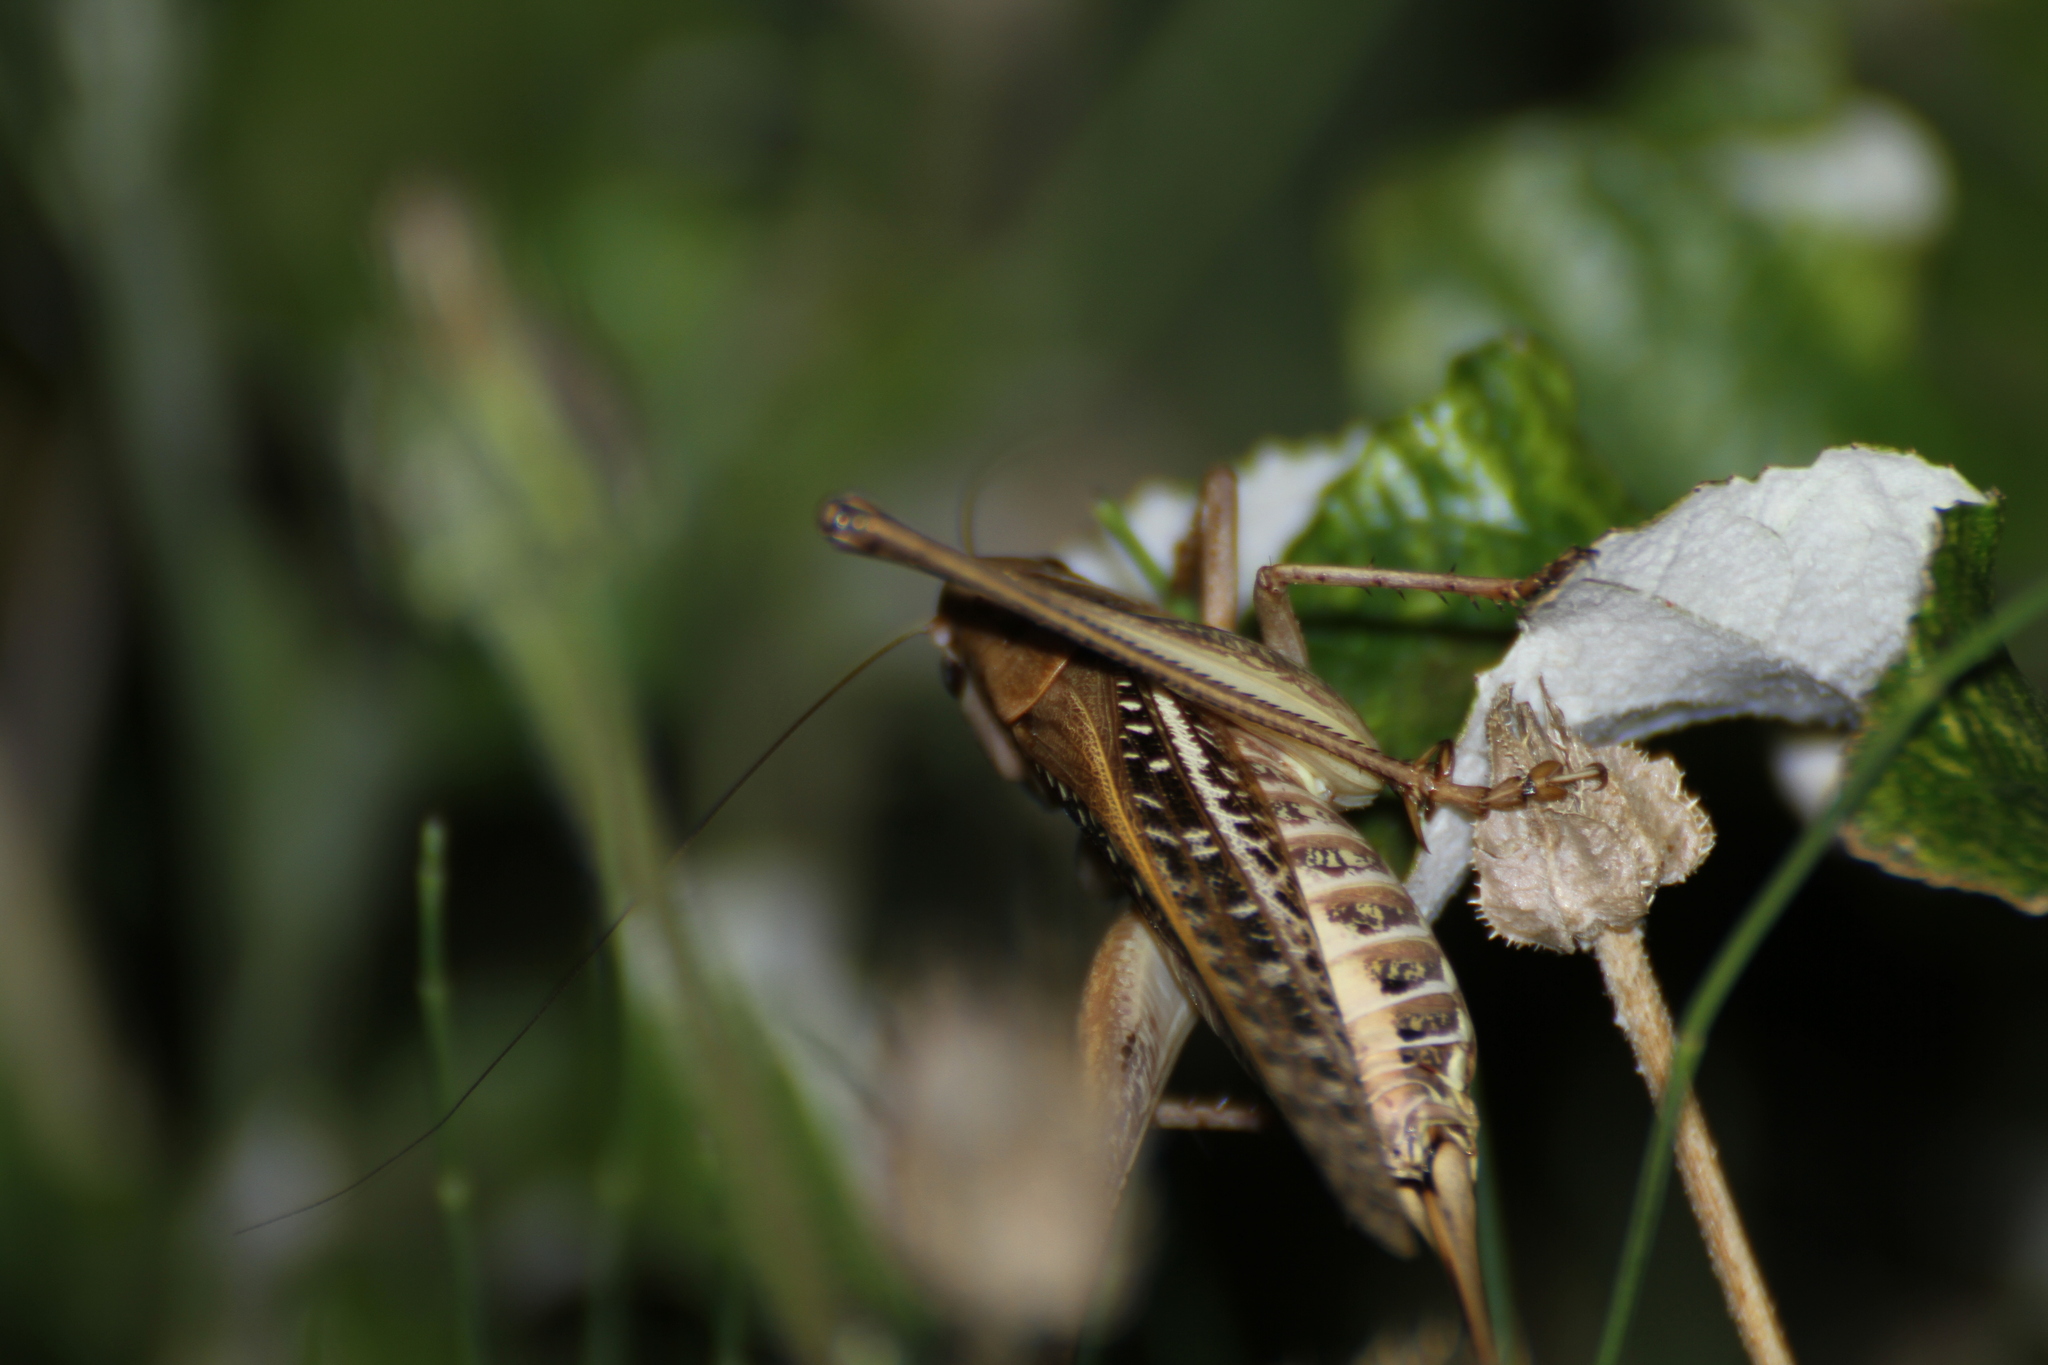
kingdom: Animalia
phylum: Arthropoda
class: Insecta
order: Orthoptera
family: Tettigoniidae
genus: Decticus
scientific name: Decticus albifrons
